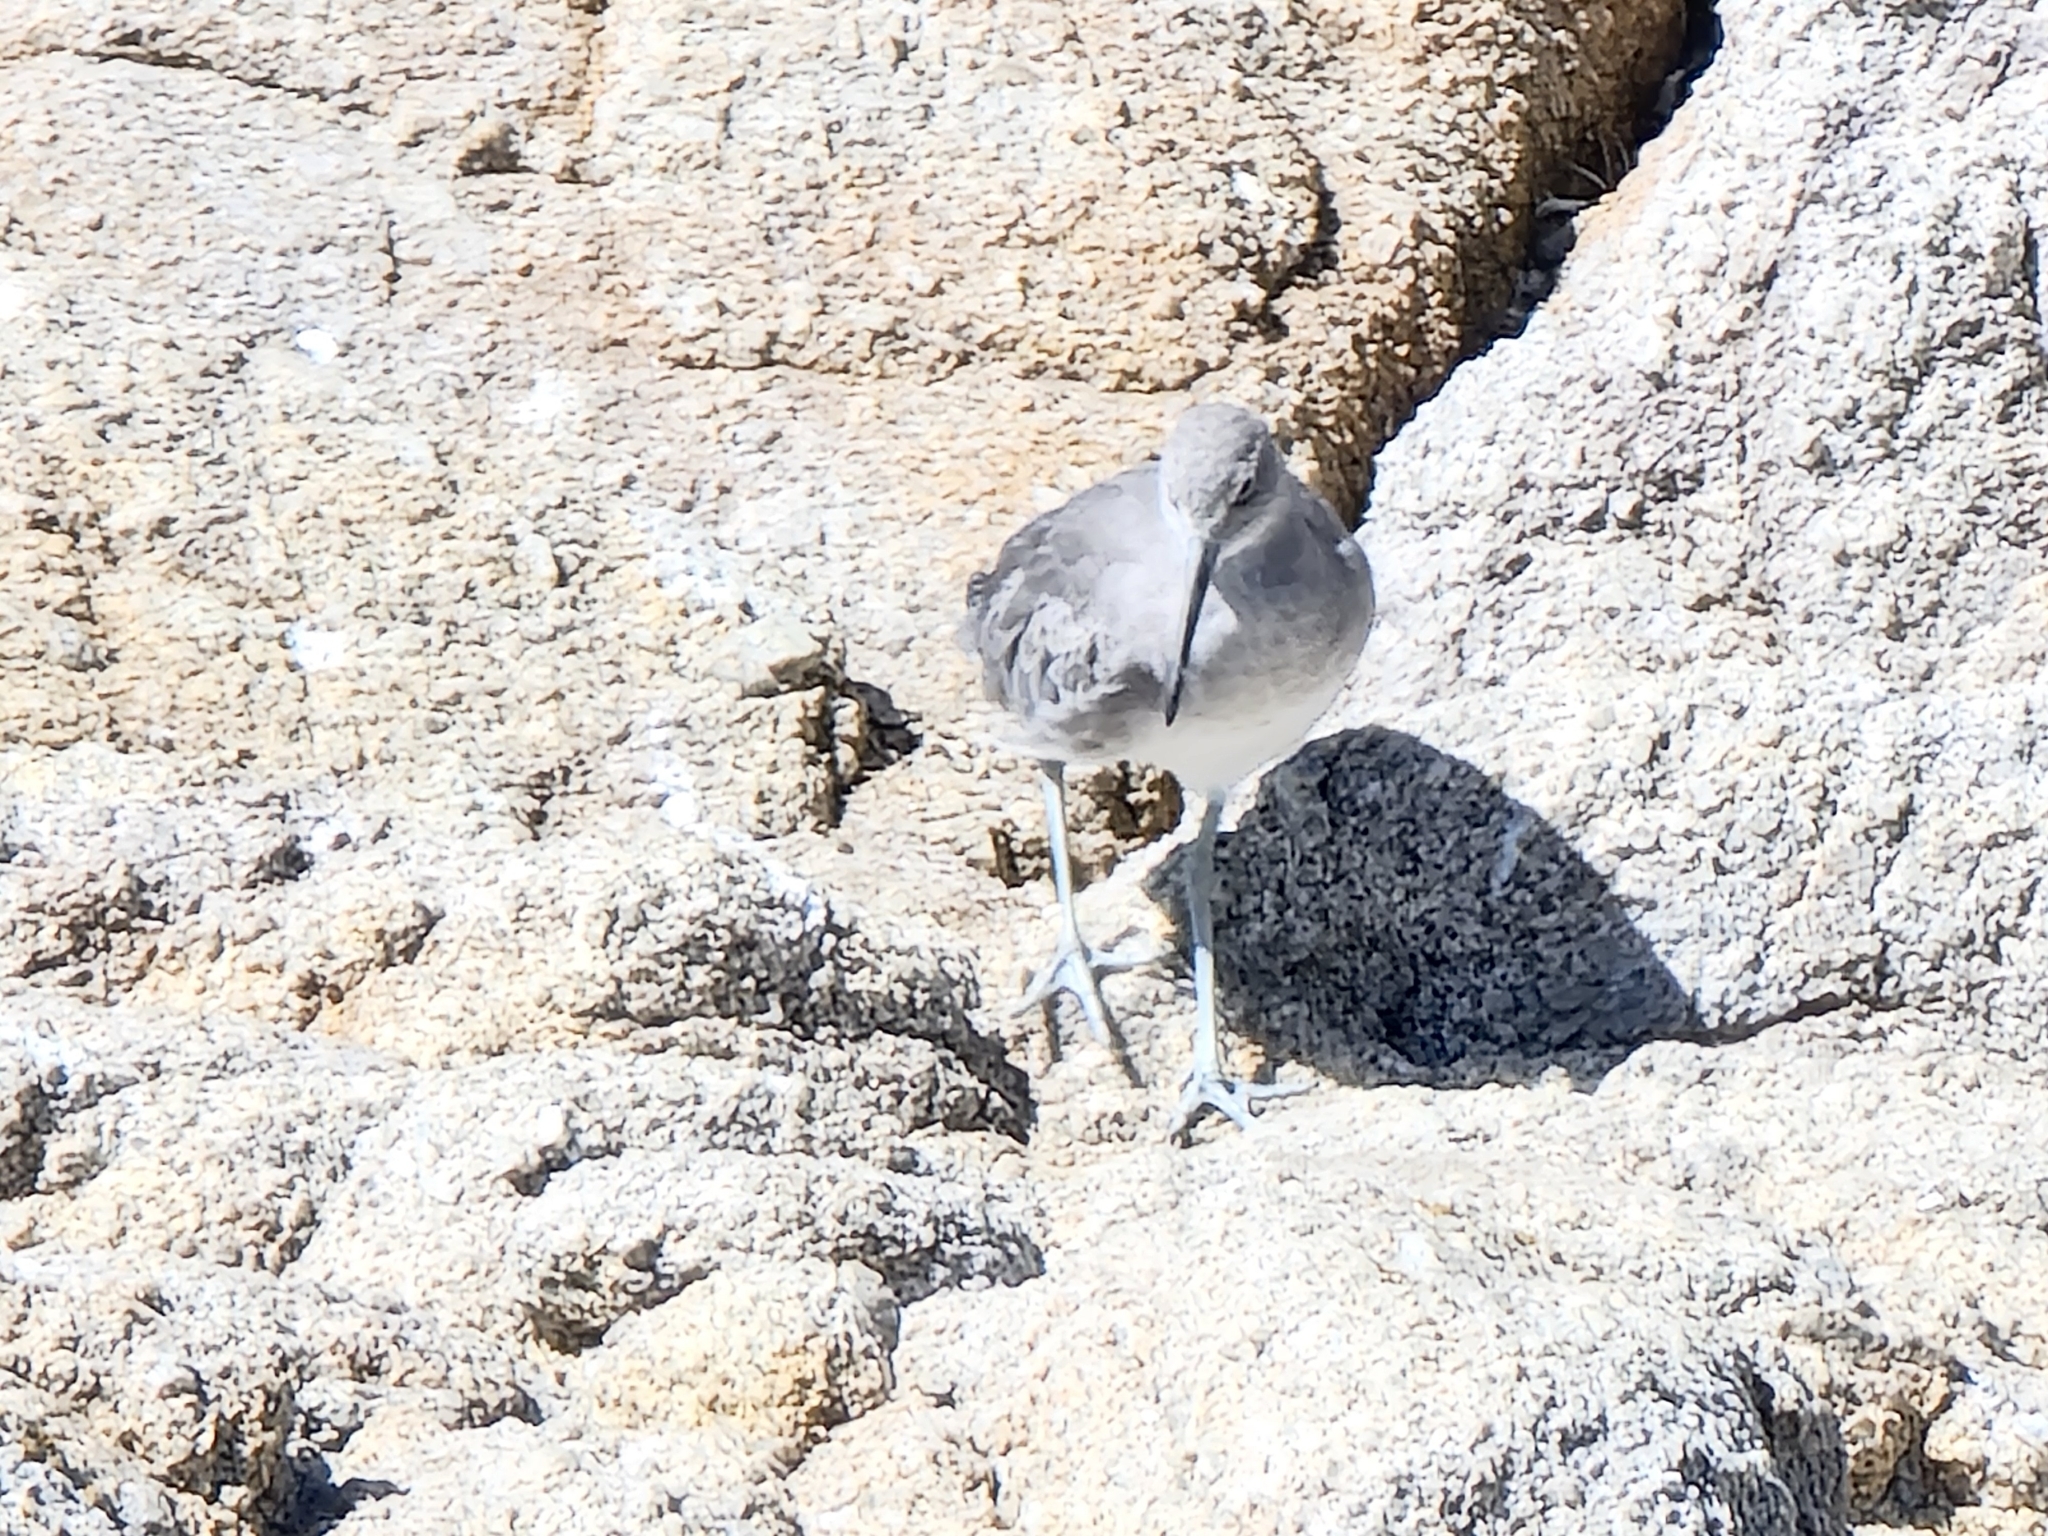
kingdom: Animalia
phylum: Chordata
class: Aves
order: Charadriiformes
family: Scolopacidae
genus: Tringa
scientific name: Tringa semipalmata
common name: Willet
